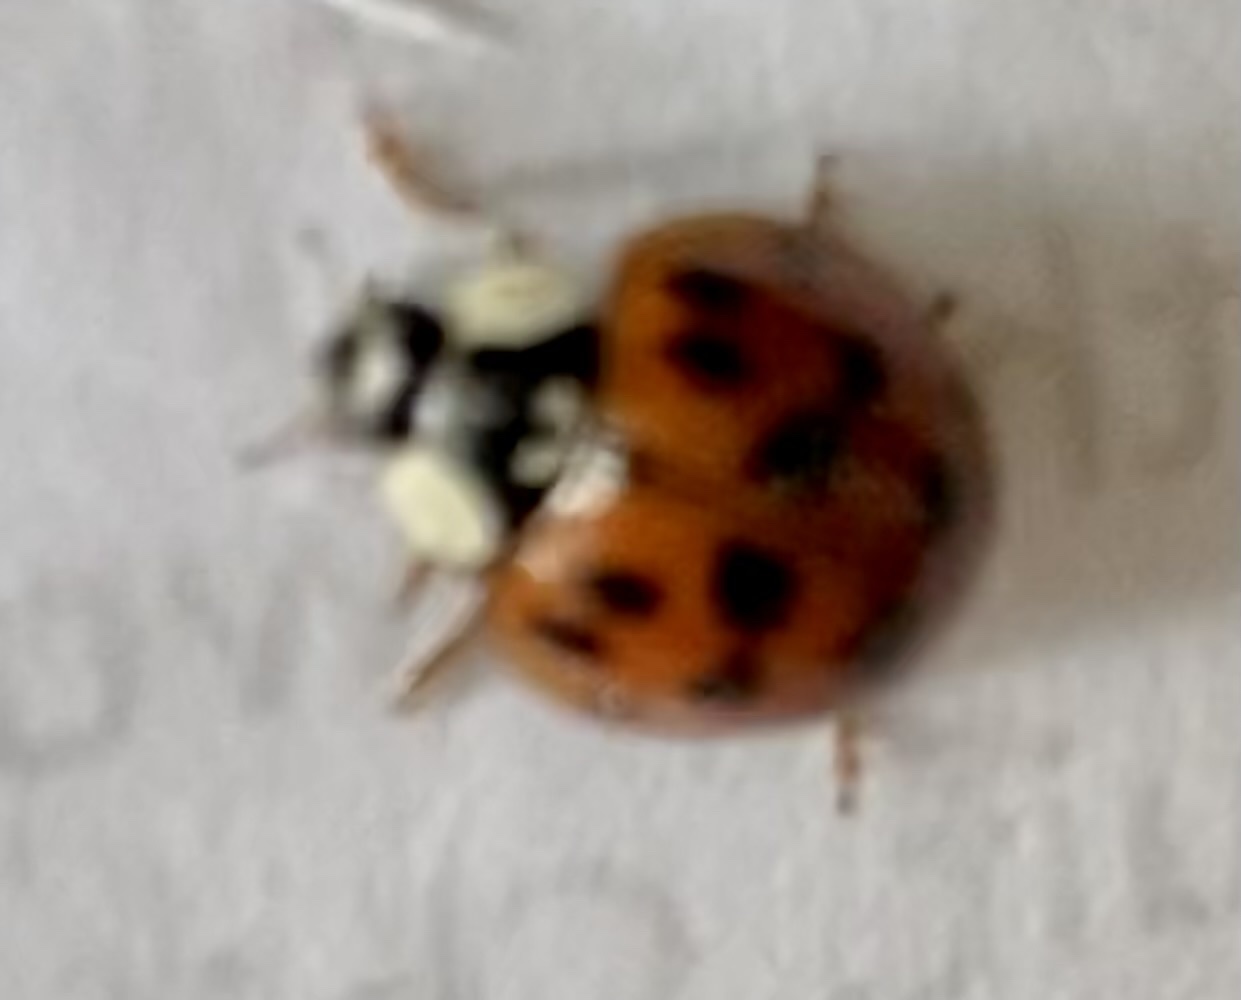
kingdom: Animalia
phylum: Arthropoda
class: Insecta
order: Coleoptera
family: Coccinellidae
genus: Harmonia
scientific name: Harmonia axyridis
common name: Harlequin ladybird
